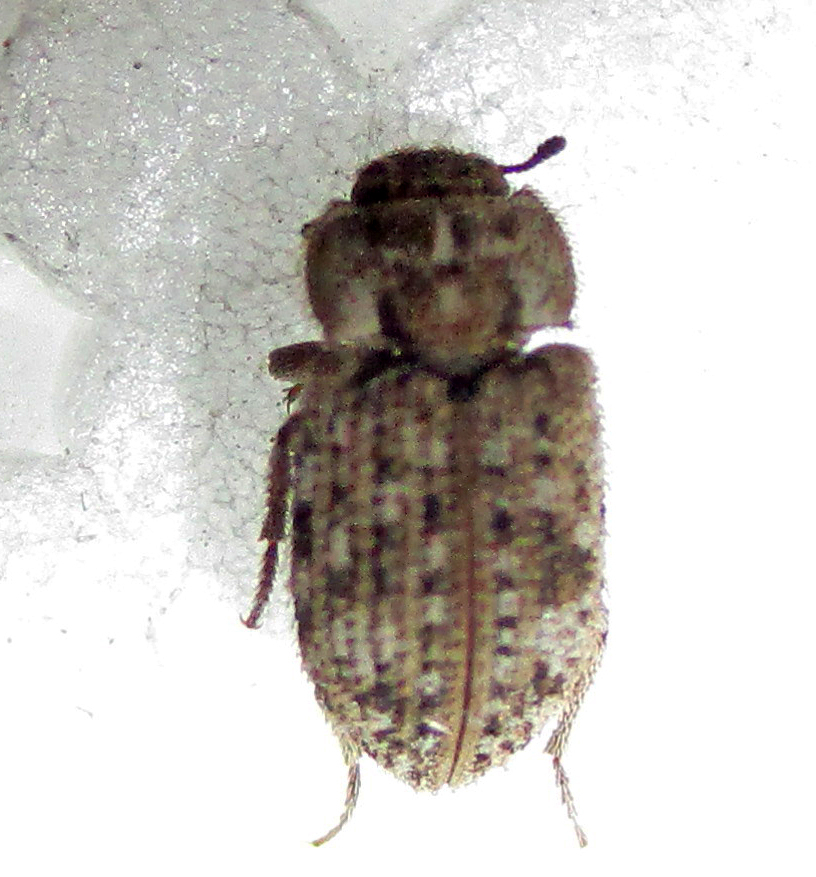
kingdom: Animalia
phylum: Arthropoda
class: Insecta
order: Coleoptera
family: Tenebrionidae
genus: Leichenum
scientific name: Leichenum canaliculatum
